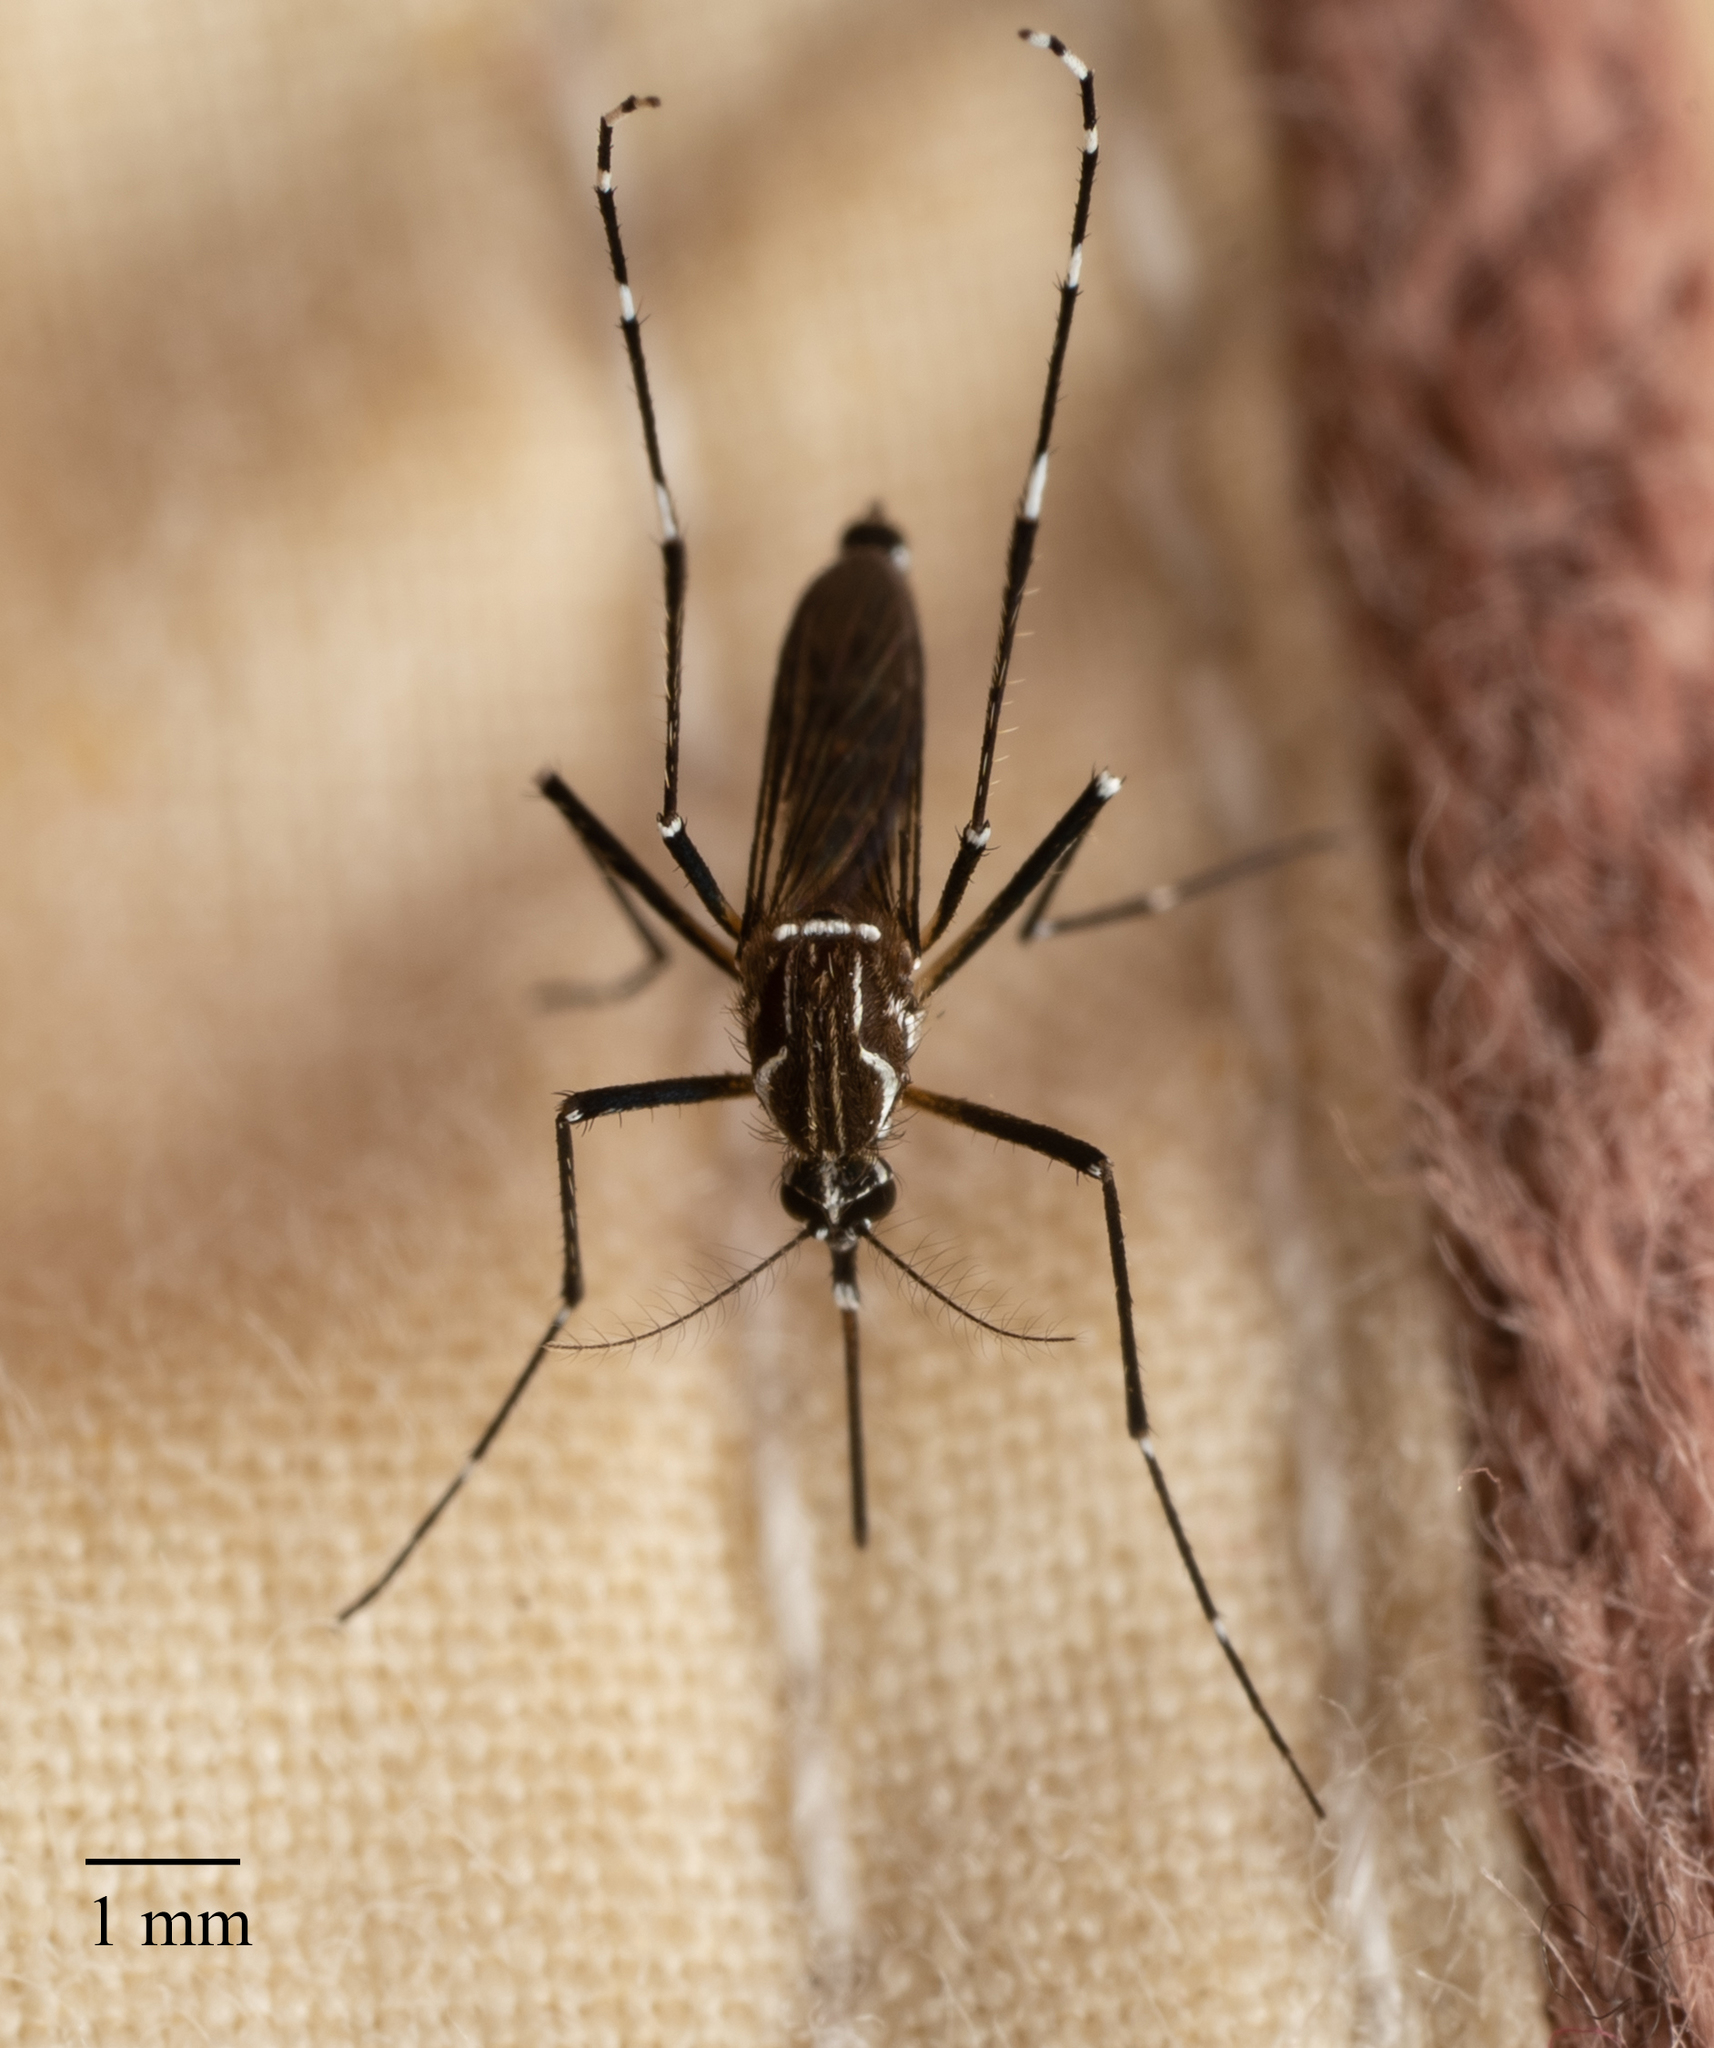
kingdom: Animalia
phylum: Arthropoda
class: Insecta
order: Diptera
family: Culicidae
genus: Aedes
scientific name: Aedes aegypti
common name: Yellow fever mosquito
